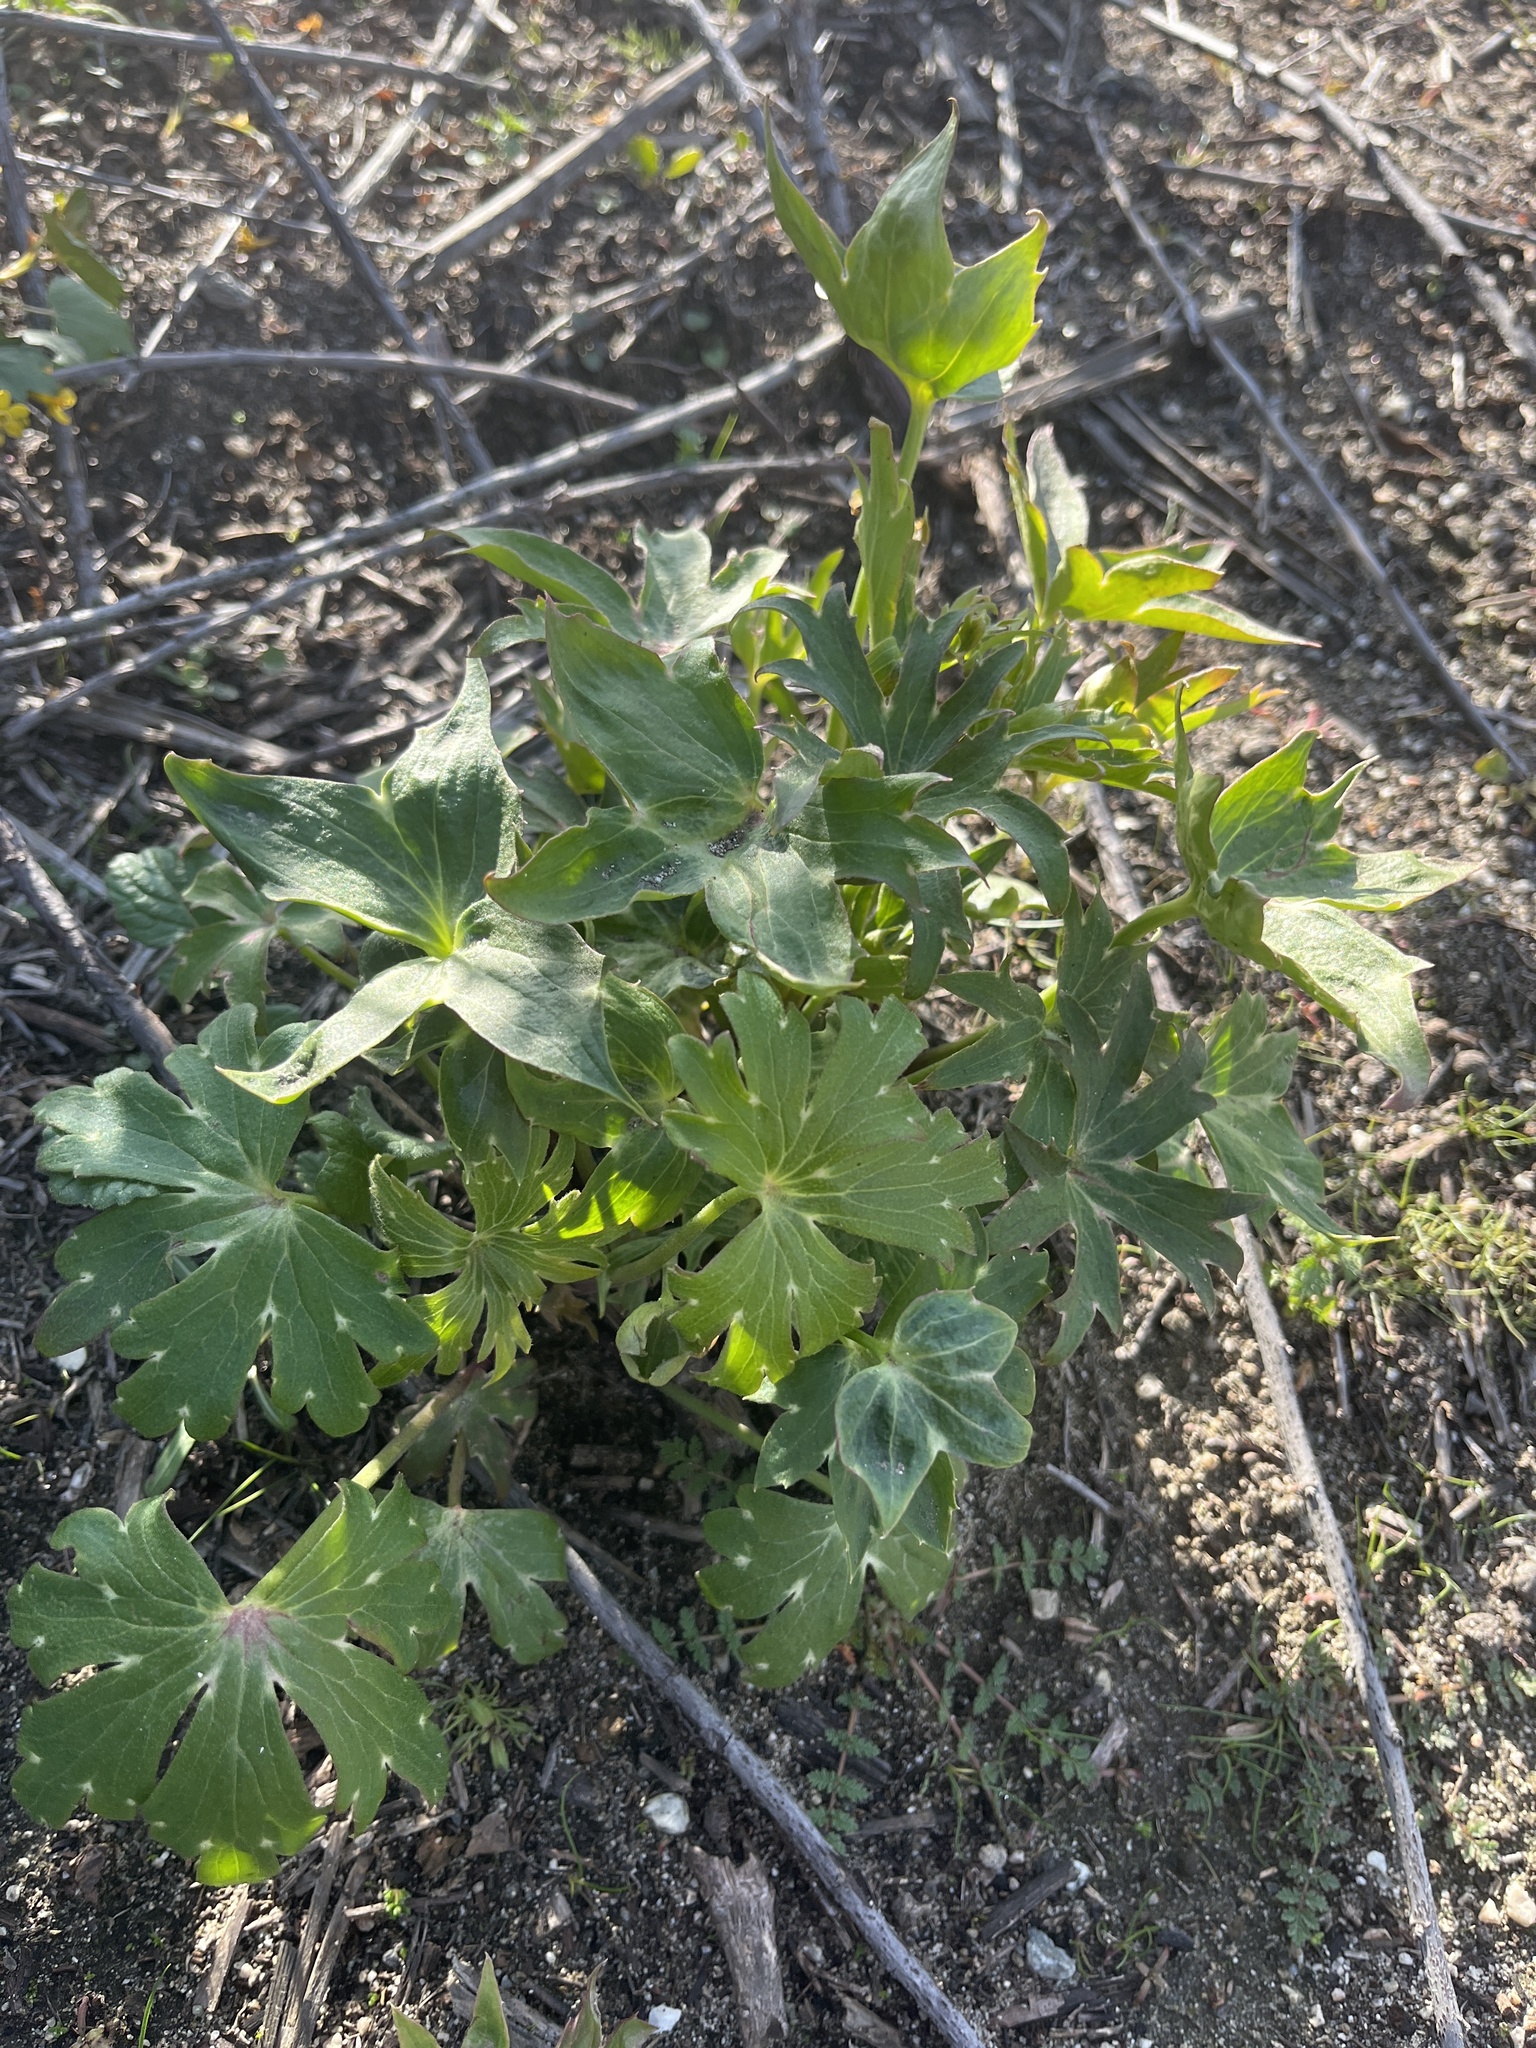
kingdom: Plantae
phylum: Tracheophyta
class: Magnoliopsida
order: Ranunculales
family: Ranunculaceae
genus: Delphinium
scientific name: Delphinium cardinale
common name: Scarlet larkspur
